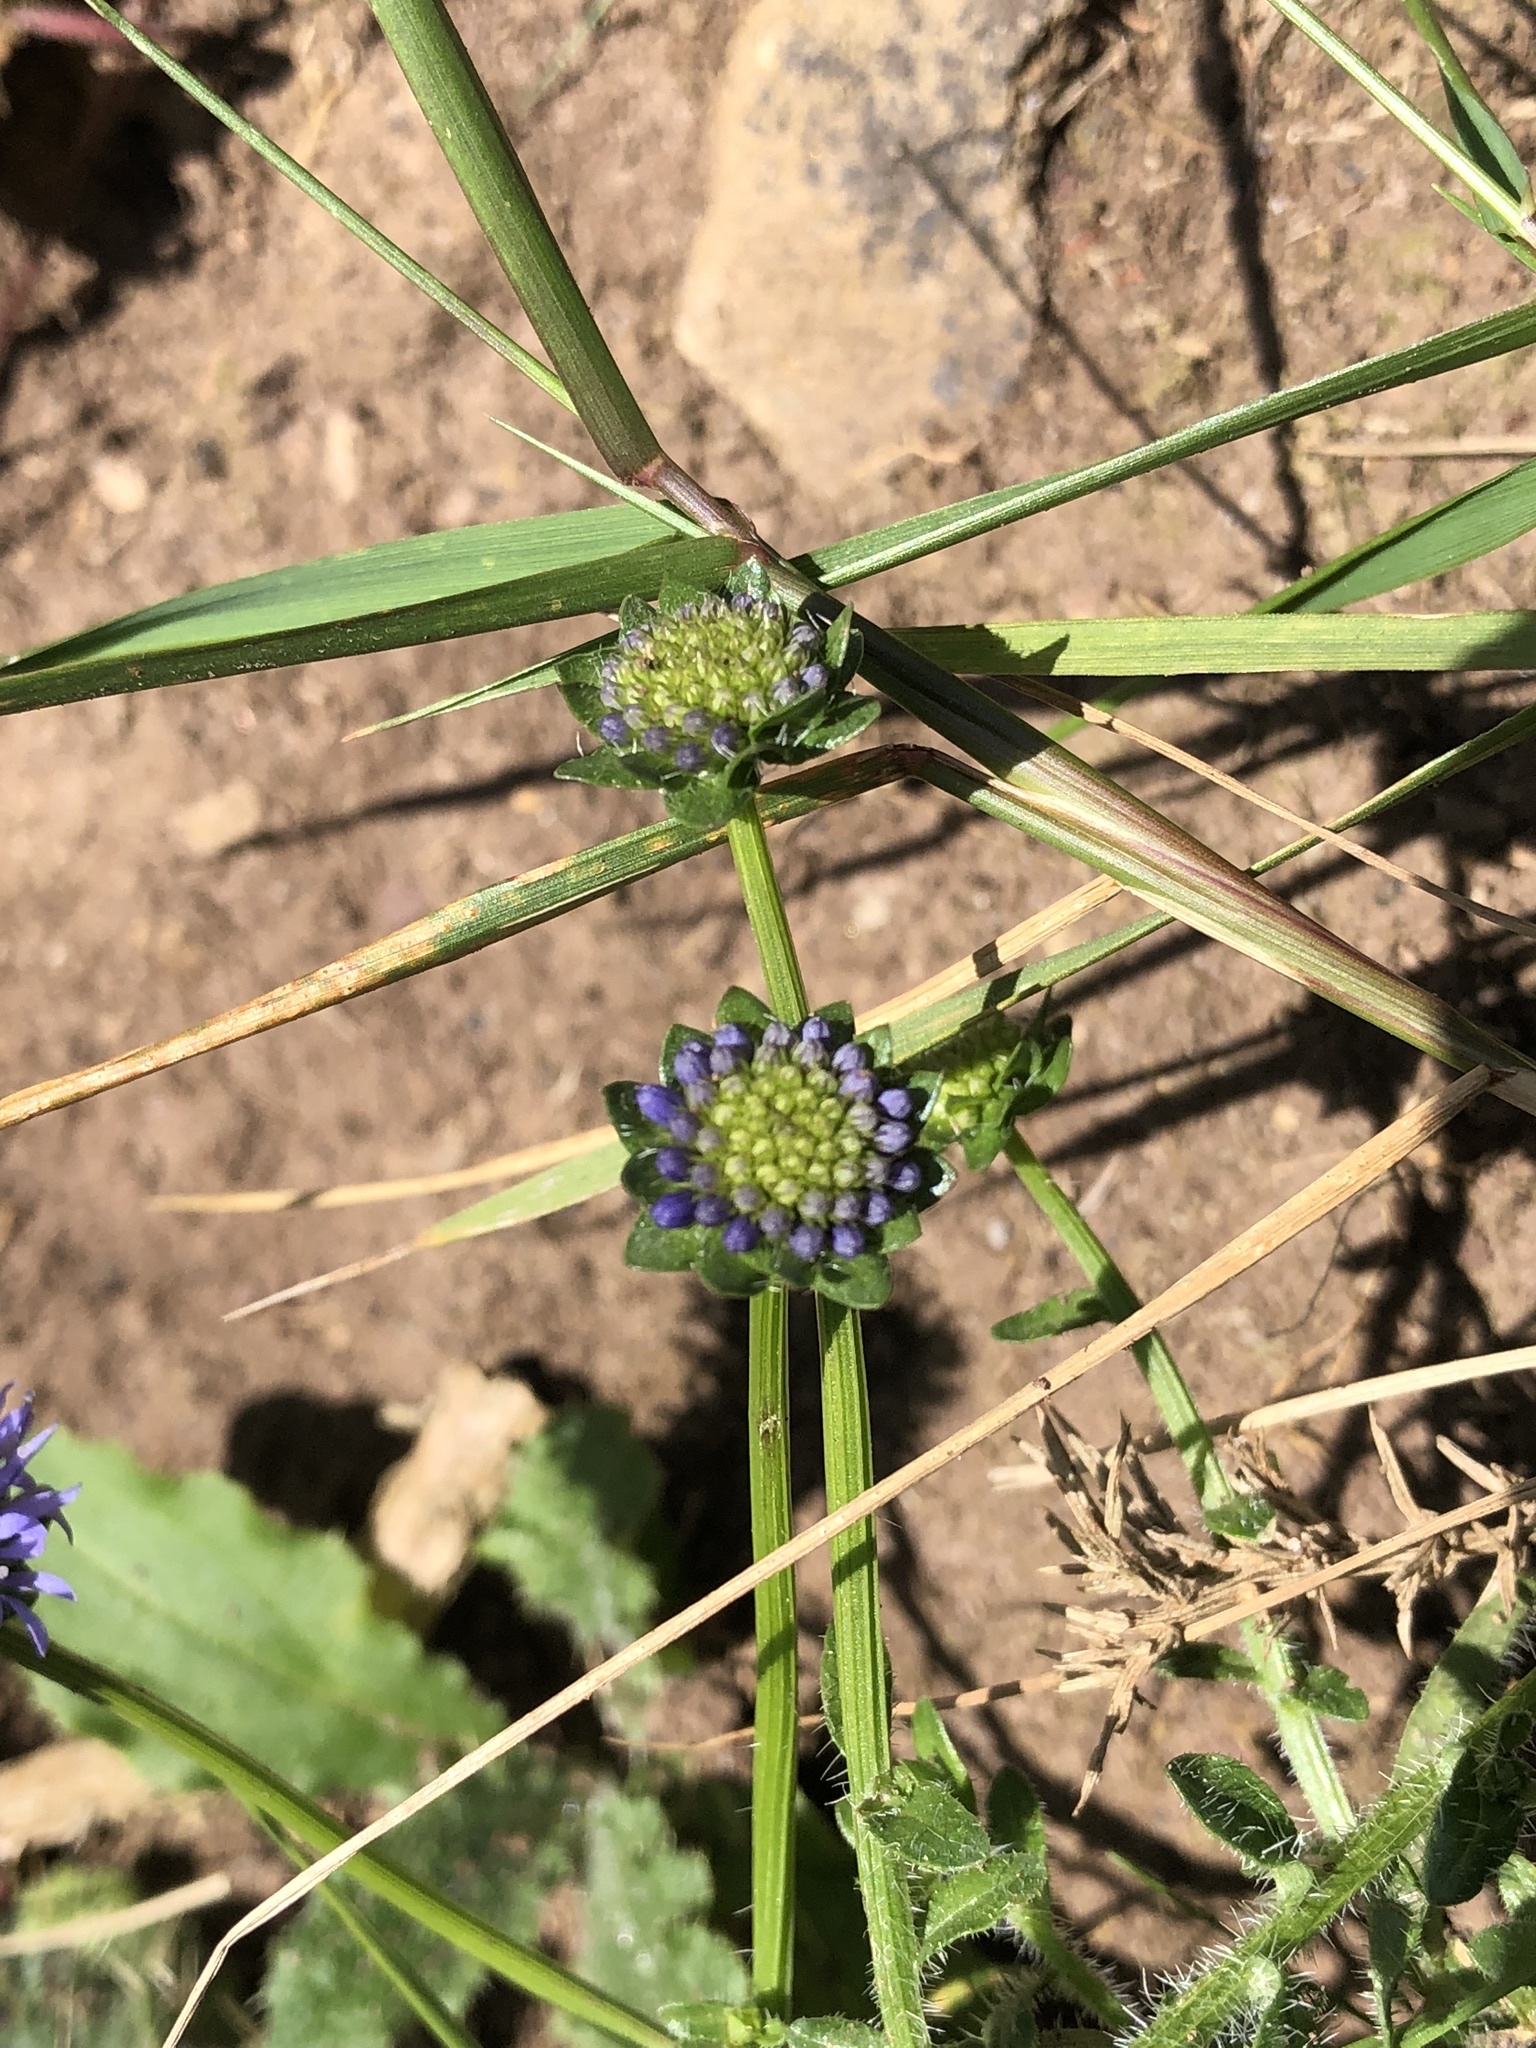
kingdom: Plantae
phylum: Tracheophyta
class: Magnoliopsida
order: Asterales
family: Campanulaceae
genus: Jasione
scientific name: Jasione montana
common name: Sheep's-bit
